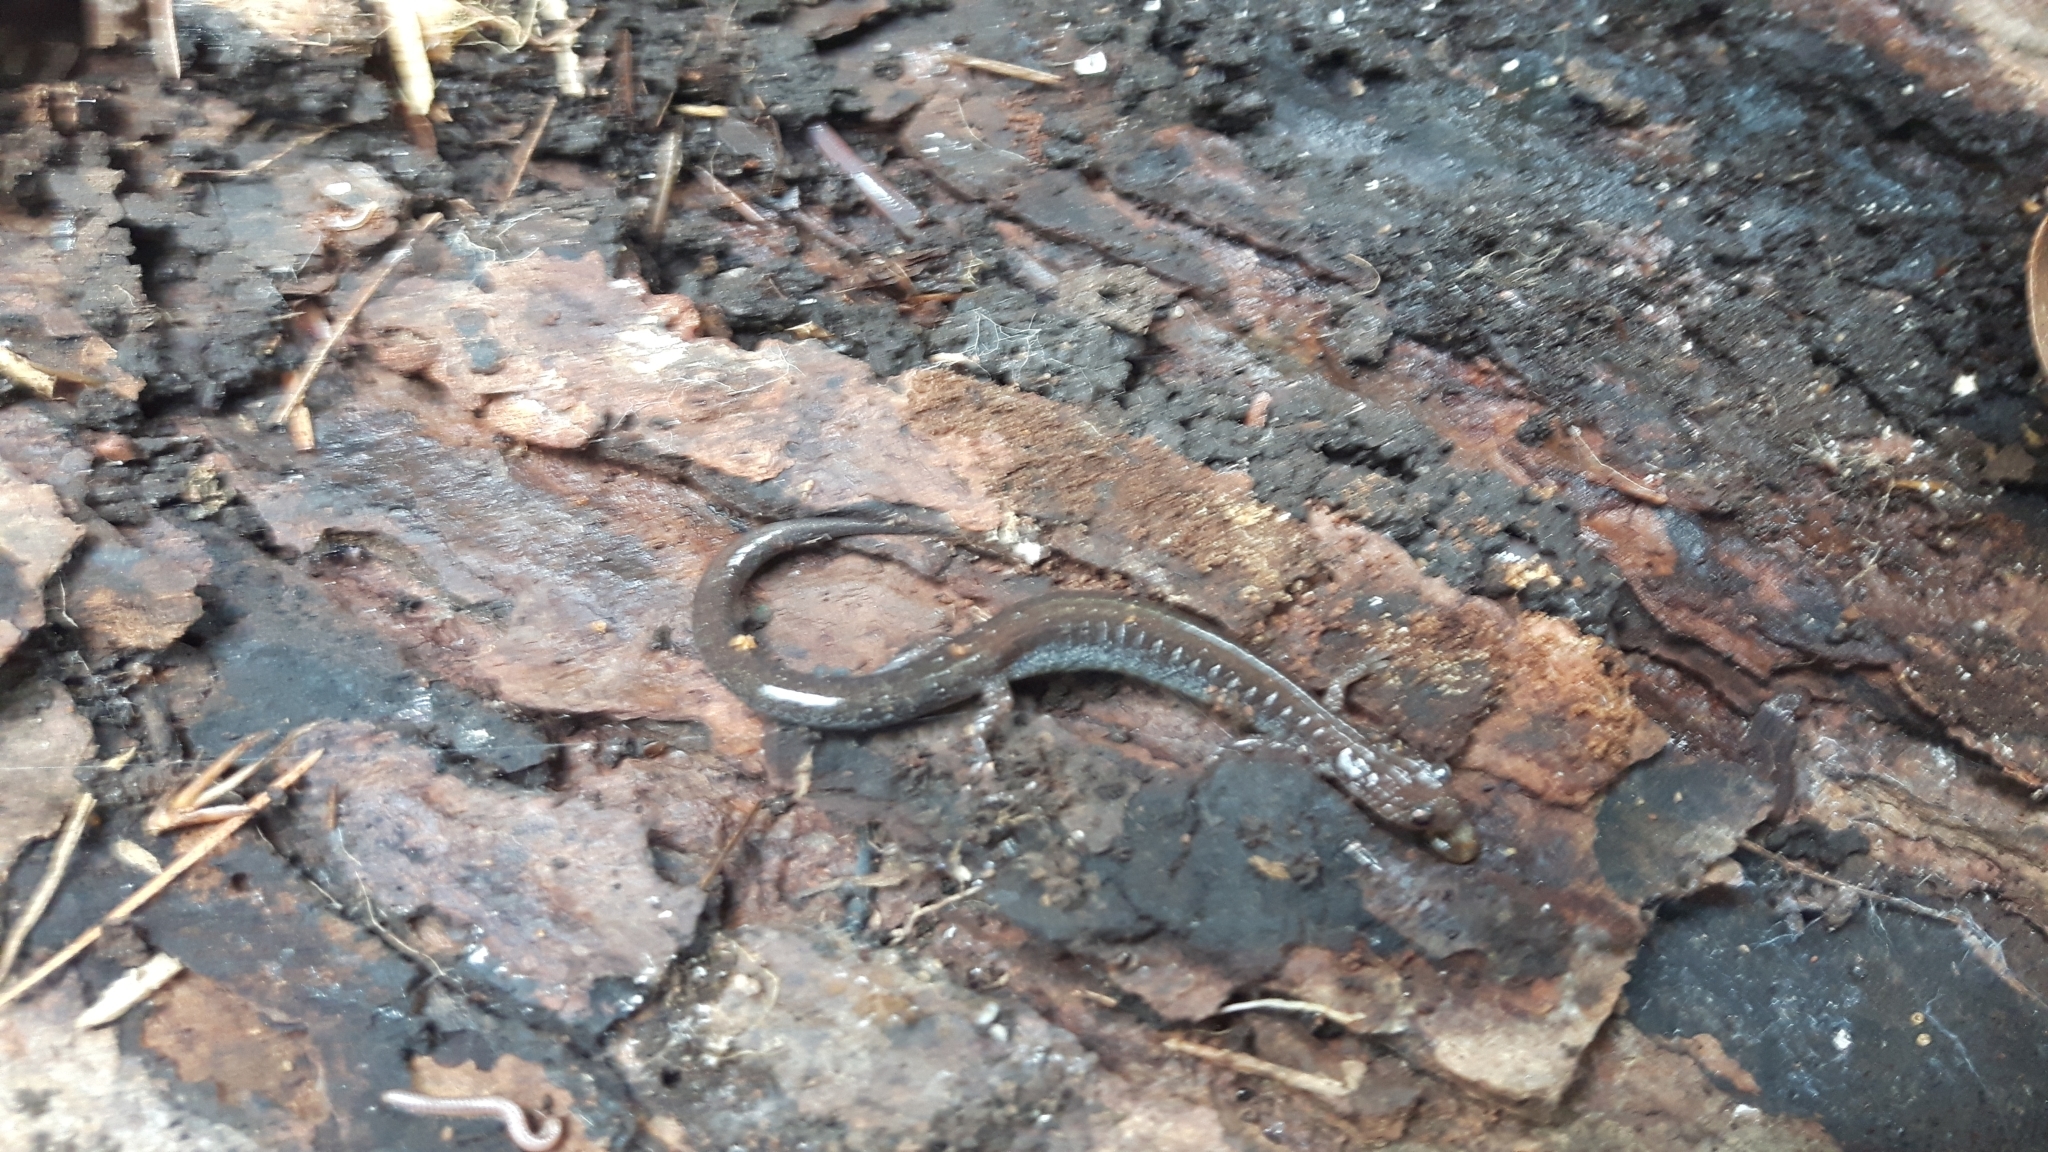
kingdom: Animalia
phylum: Chordata
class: Amphibia
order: Caudata
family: Plethodontidae
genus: Plethodon
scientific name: Plethodon cinereus
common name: Redback salamander
